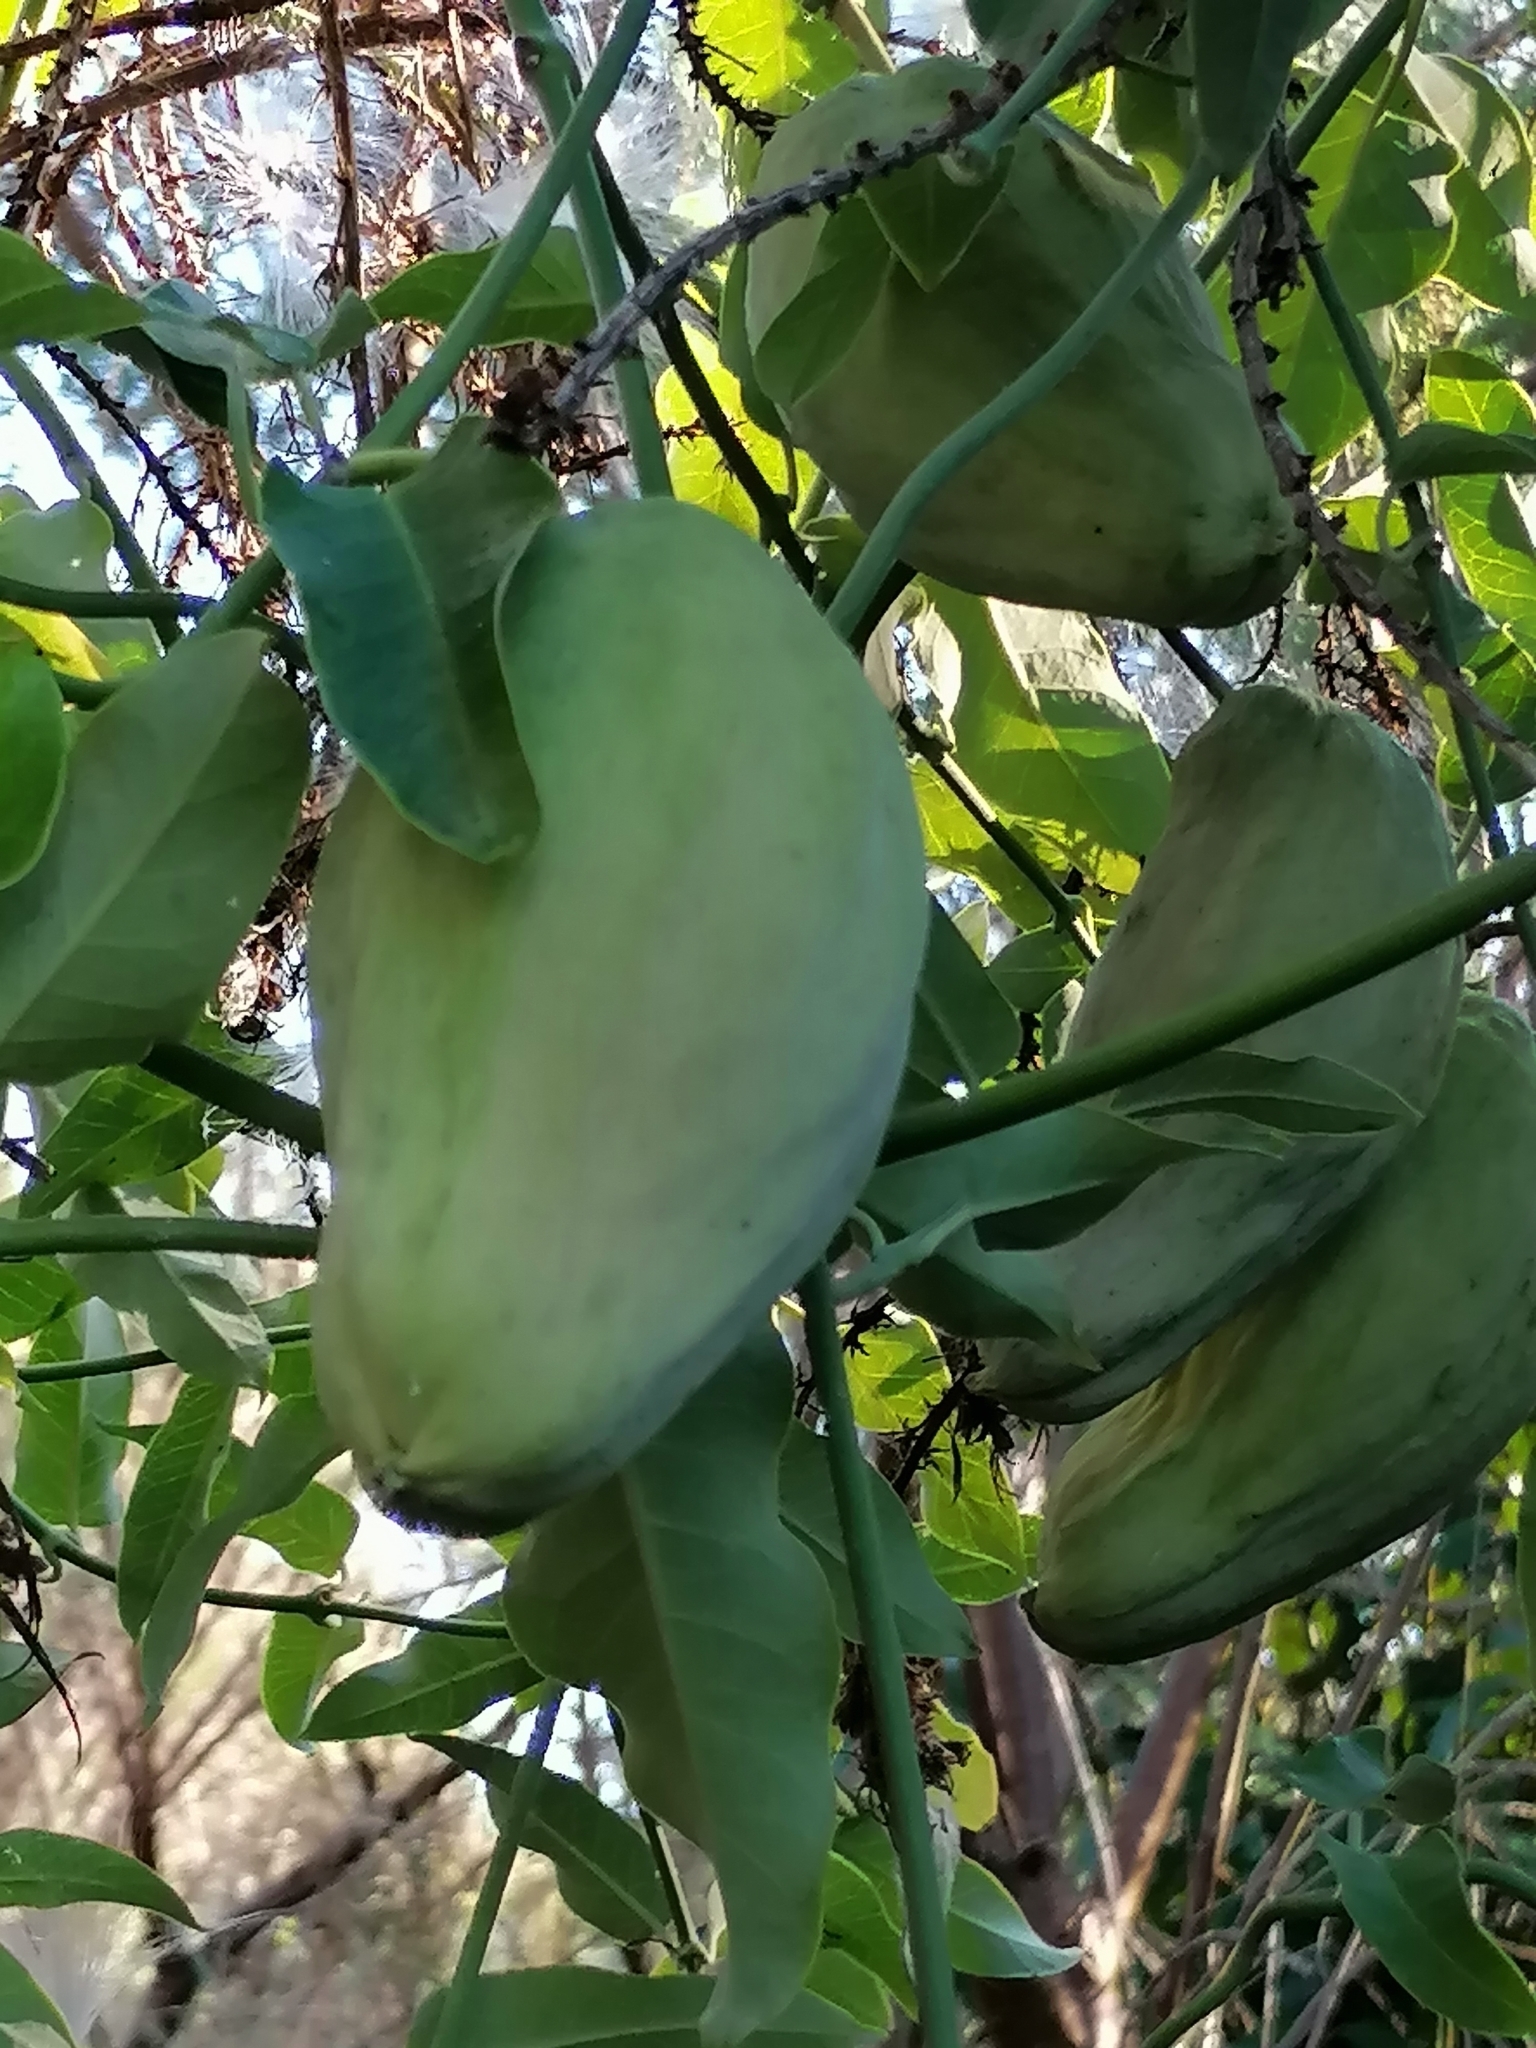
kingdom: Plantae
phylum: Tracheophyta
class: Magnoliopsida
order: Gentianales
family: Apocynaceae
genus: Araujia
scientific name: Araujia sericifera
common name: White bladderflower
